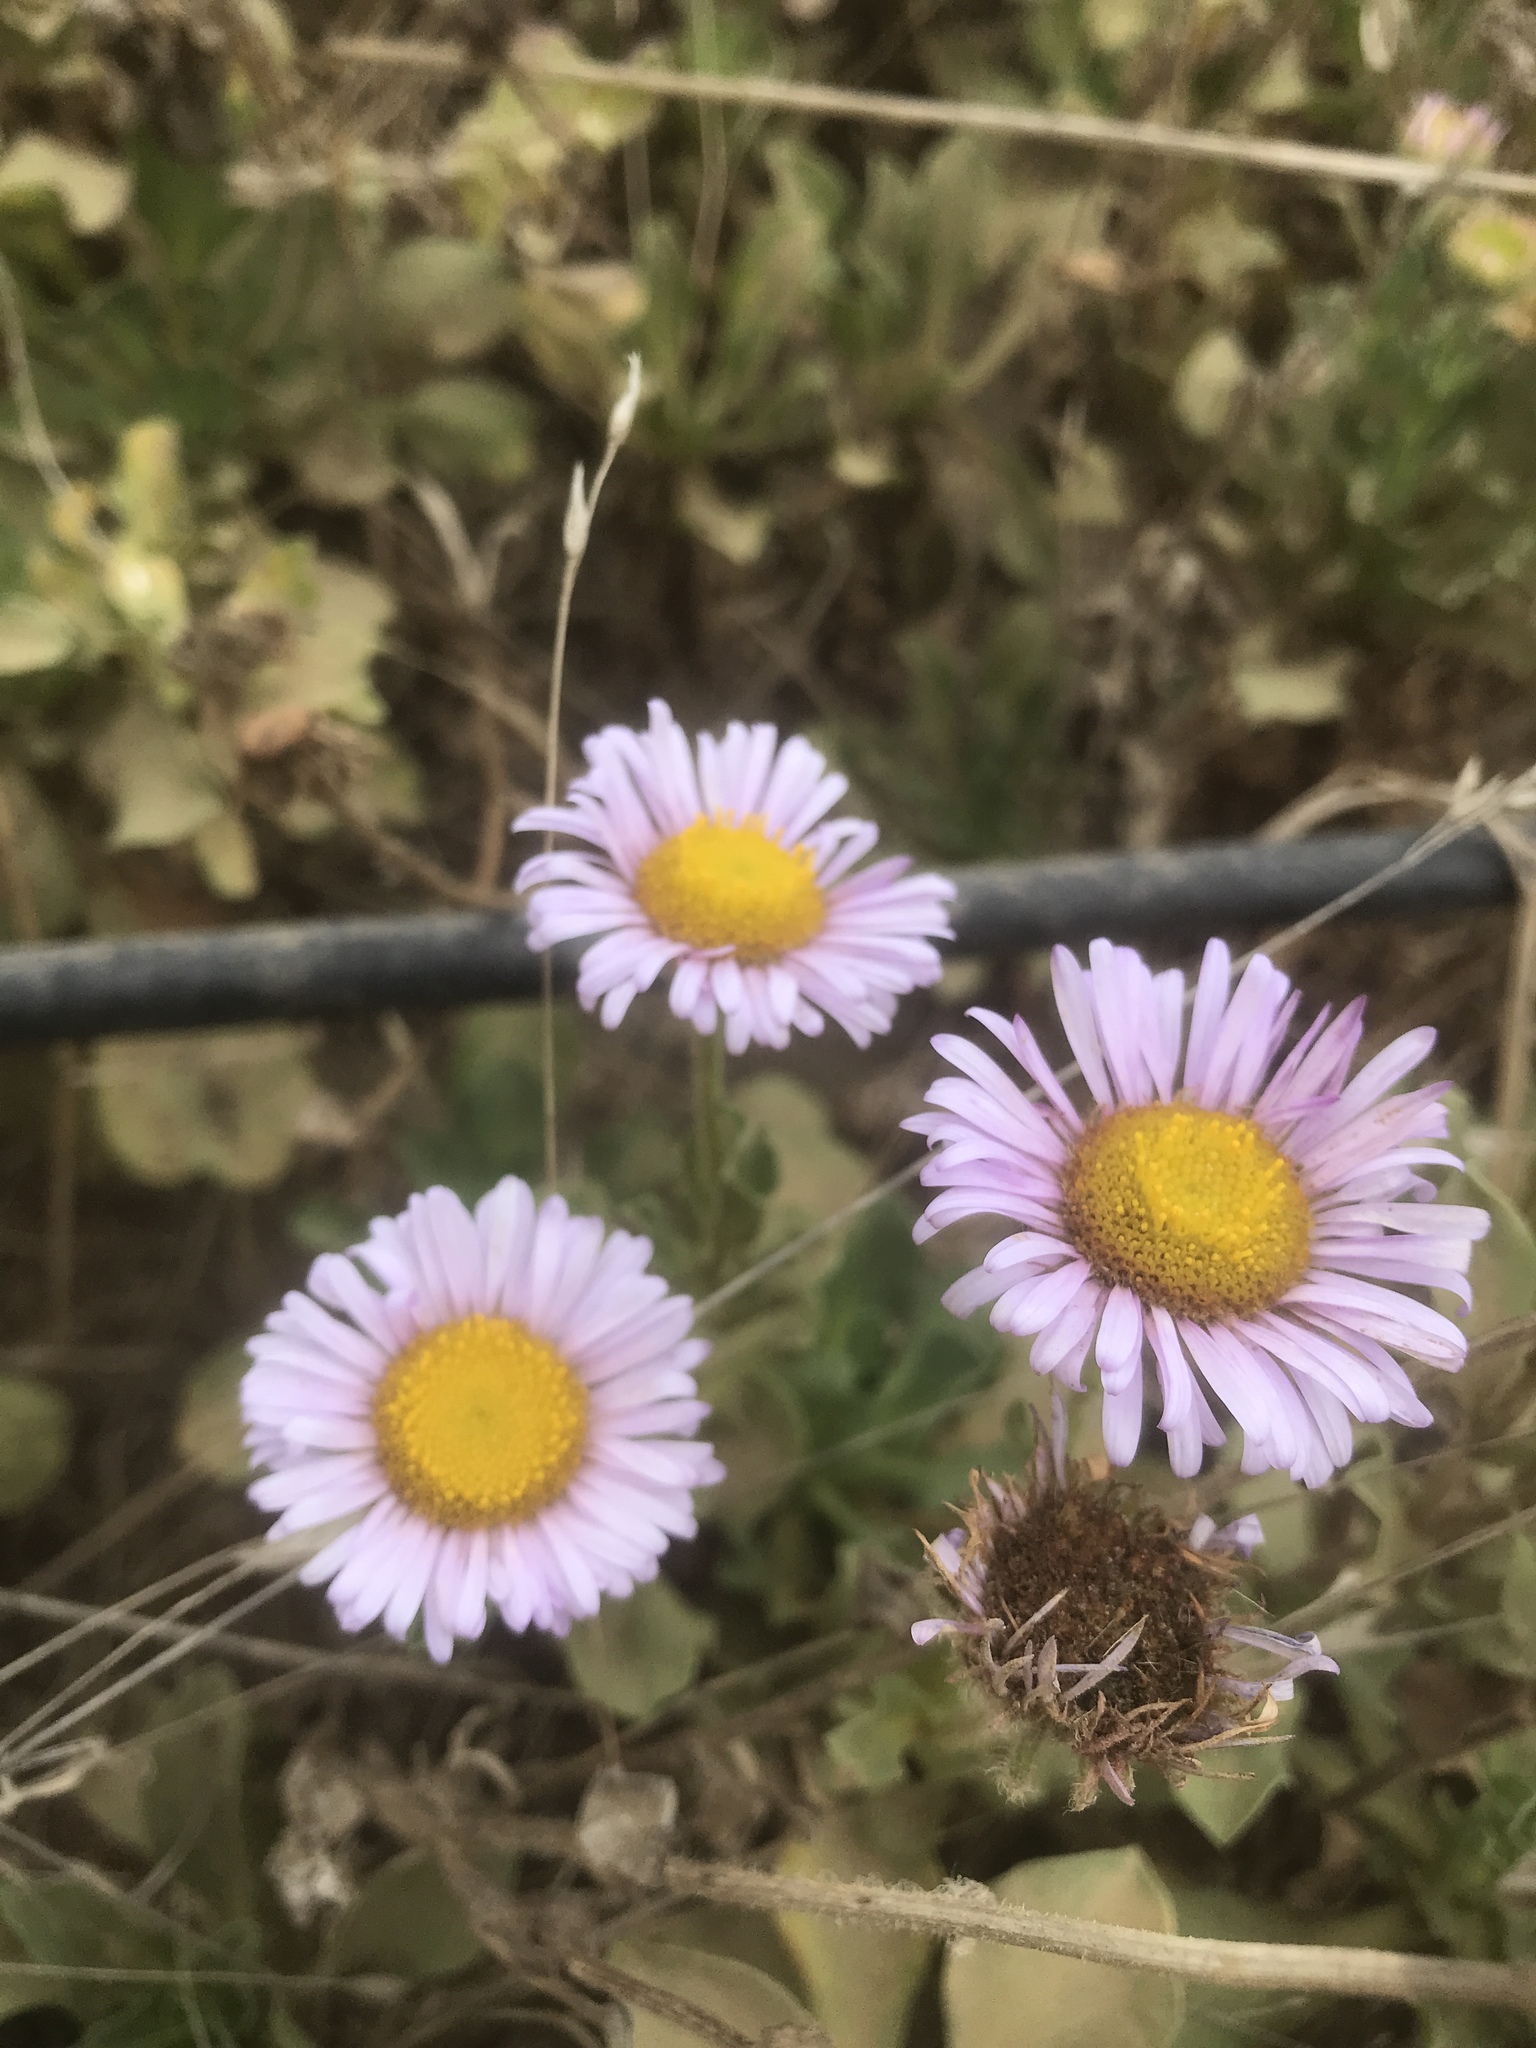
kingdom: Plantae
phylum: Tracheophyta
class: Magnoliopsida
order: Asterales
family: Asteraceae
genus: Erigeron
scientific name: Erigeron glaucus
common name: Seaside daisy
